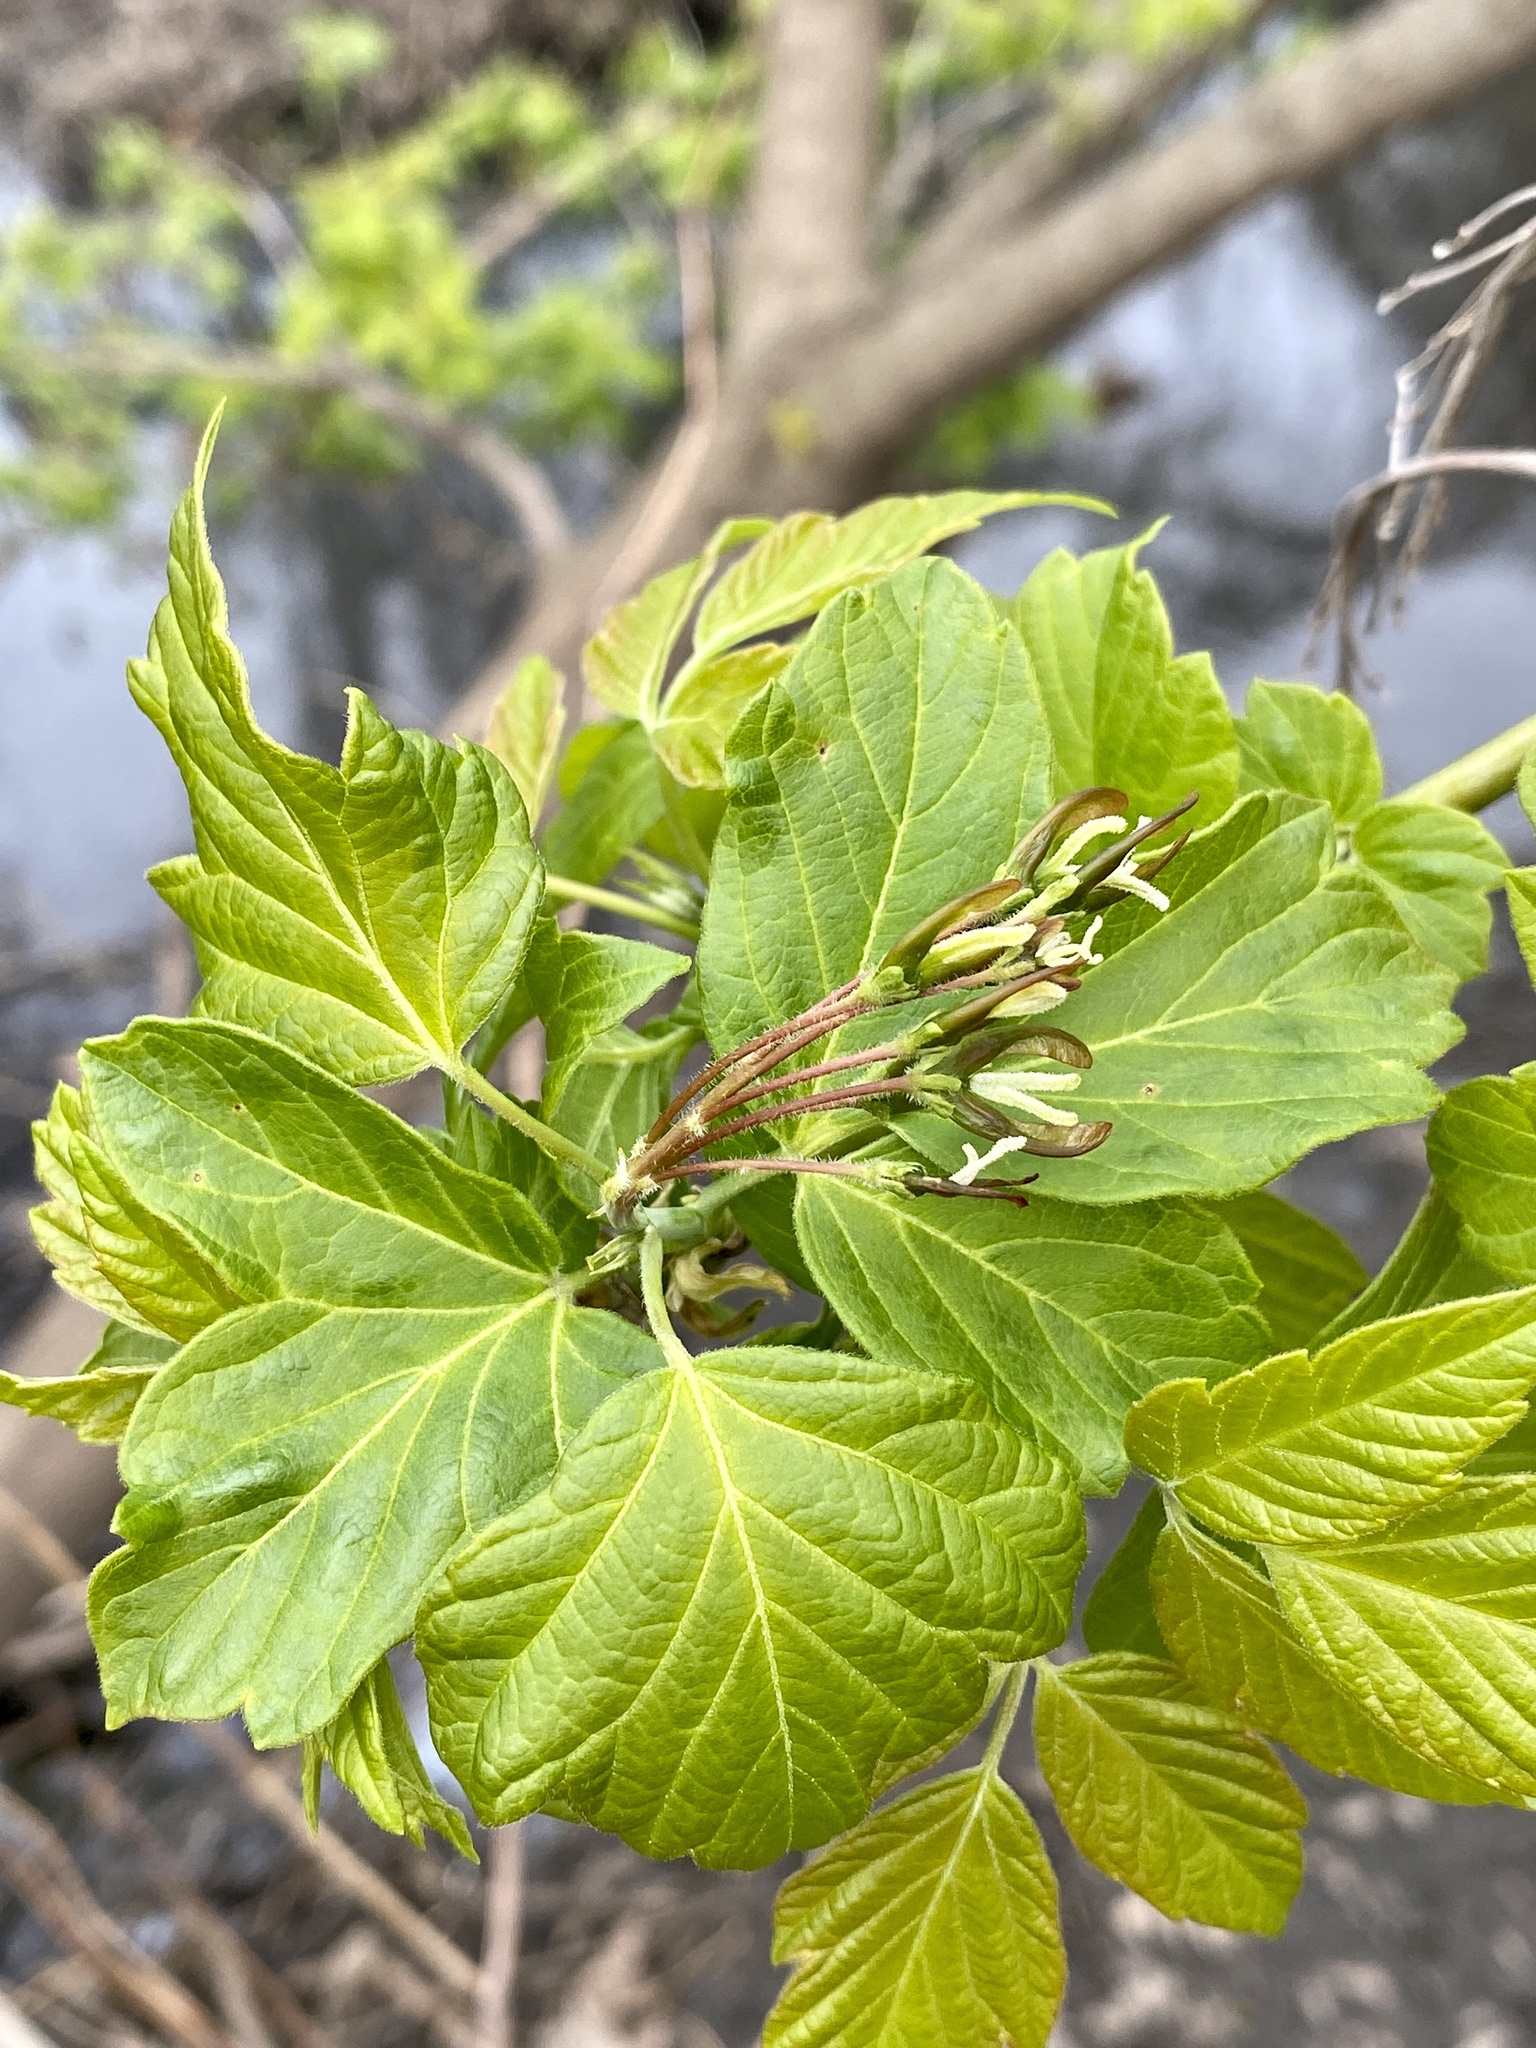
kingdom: Plantae
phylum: Tracheophyta
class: Magnoliopsida
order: Sapindales
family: Sapindaceae
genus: Acer
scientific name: Acer negundo
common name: Ashleaf maple
